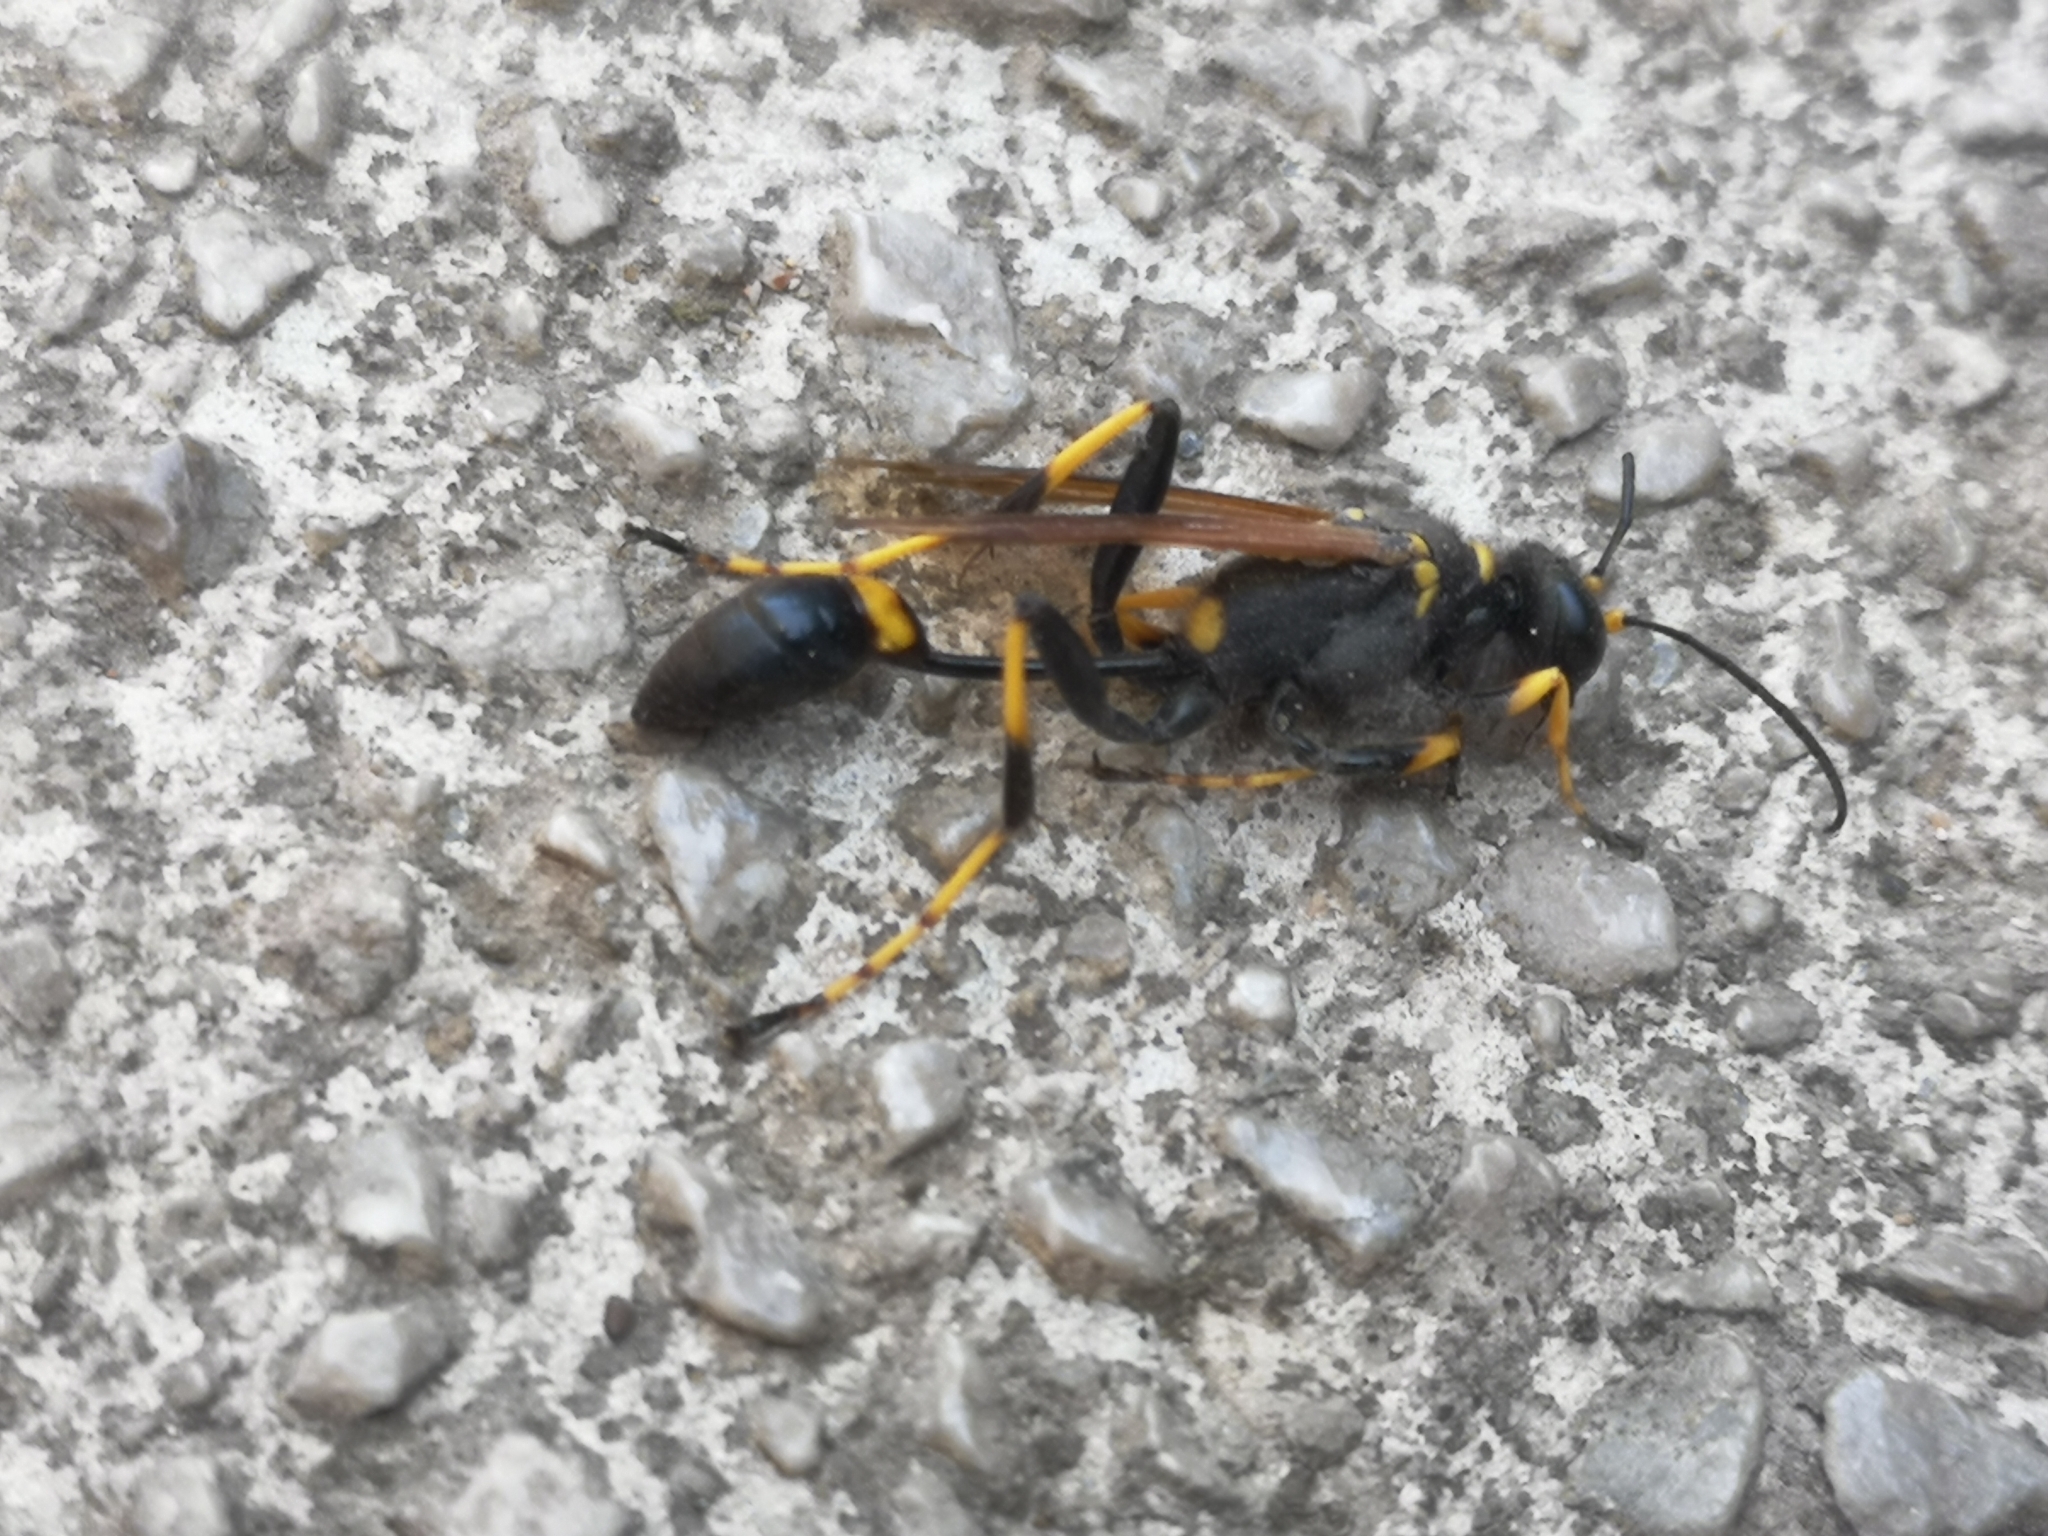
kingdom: Animalia
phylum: Arthropoda
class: Insecta
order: Hymenoptera
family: Sphecidae
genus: Sceliphron
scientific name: Sceliphron caementarium
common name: Mud dauber
